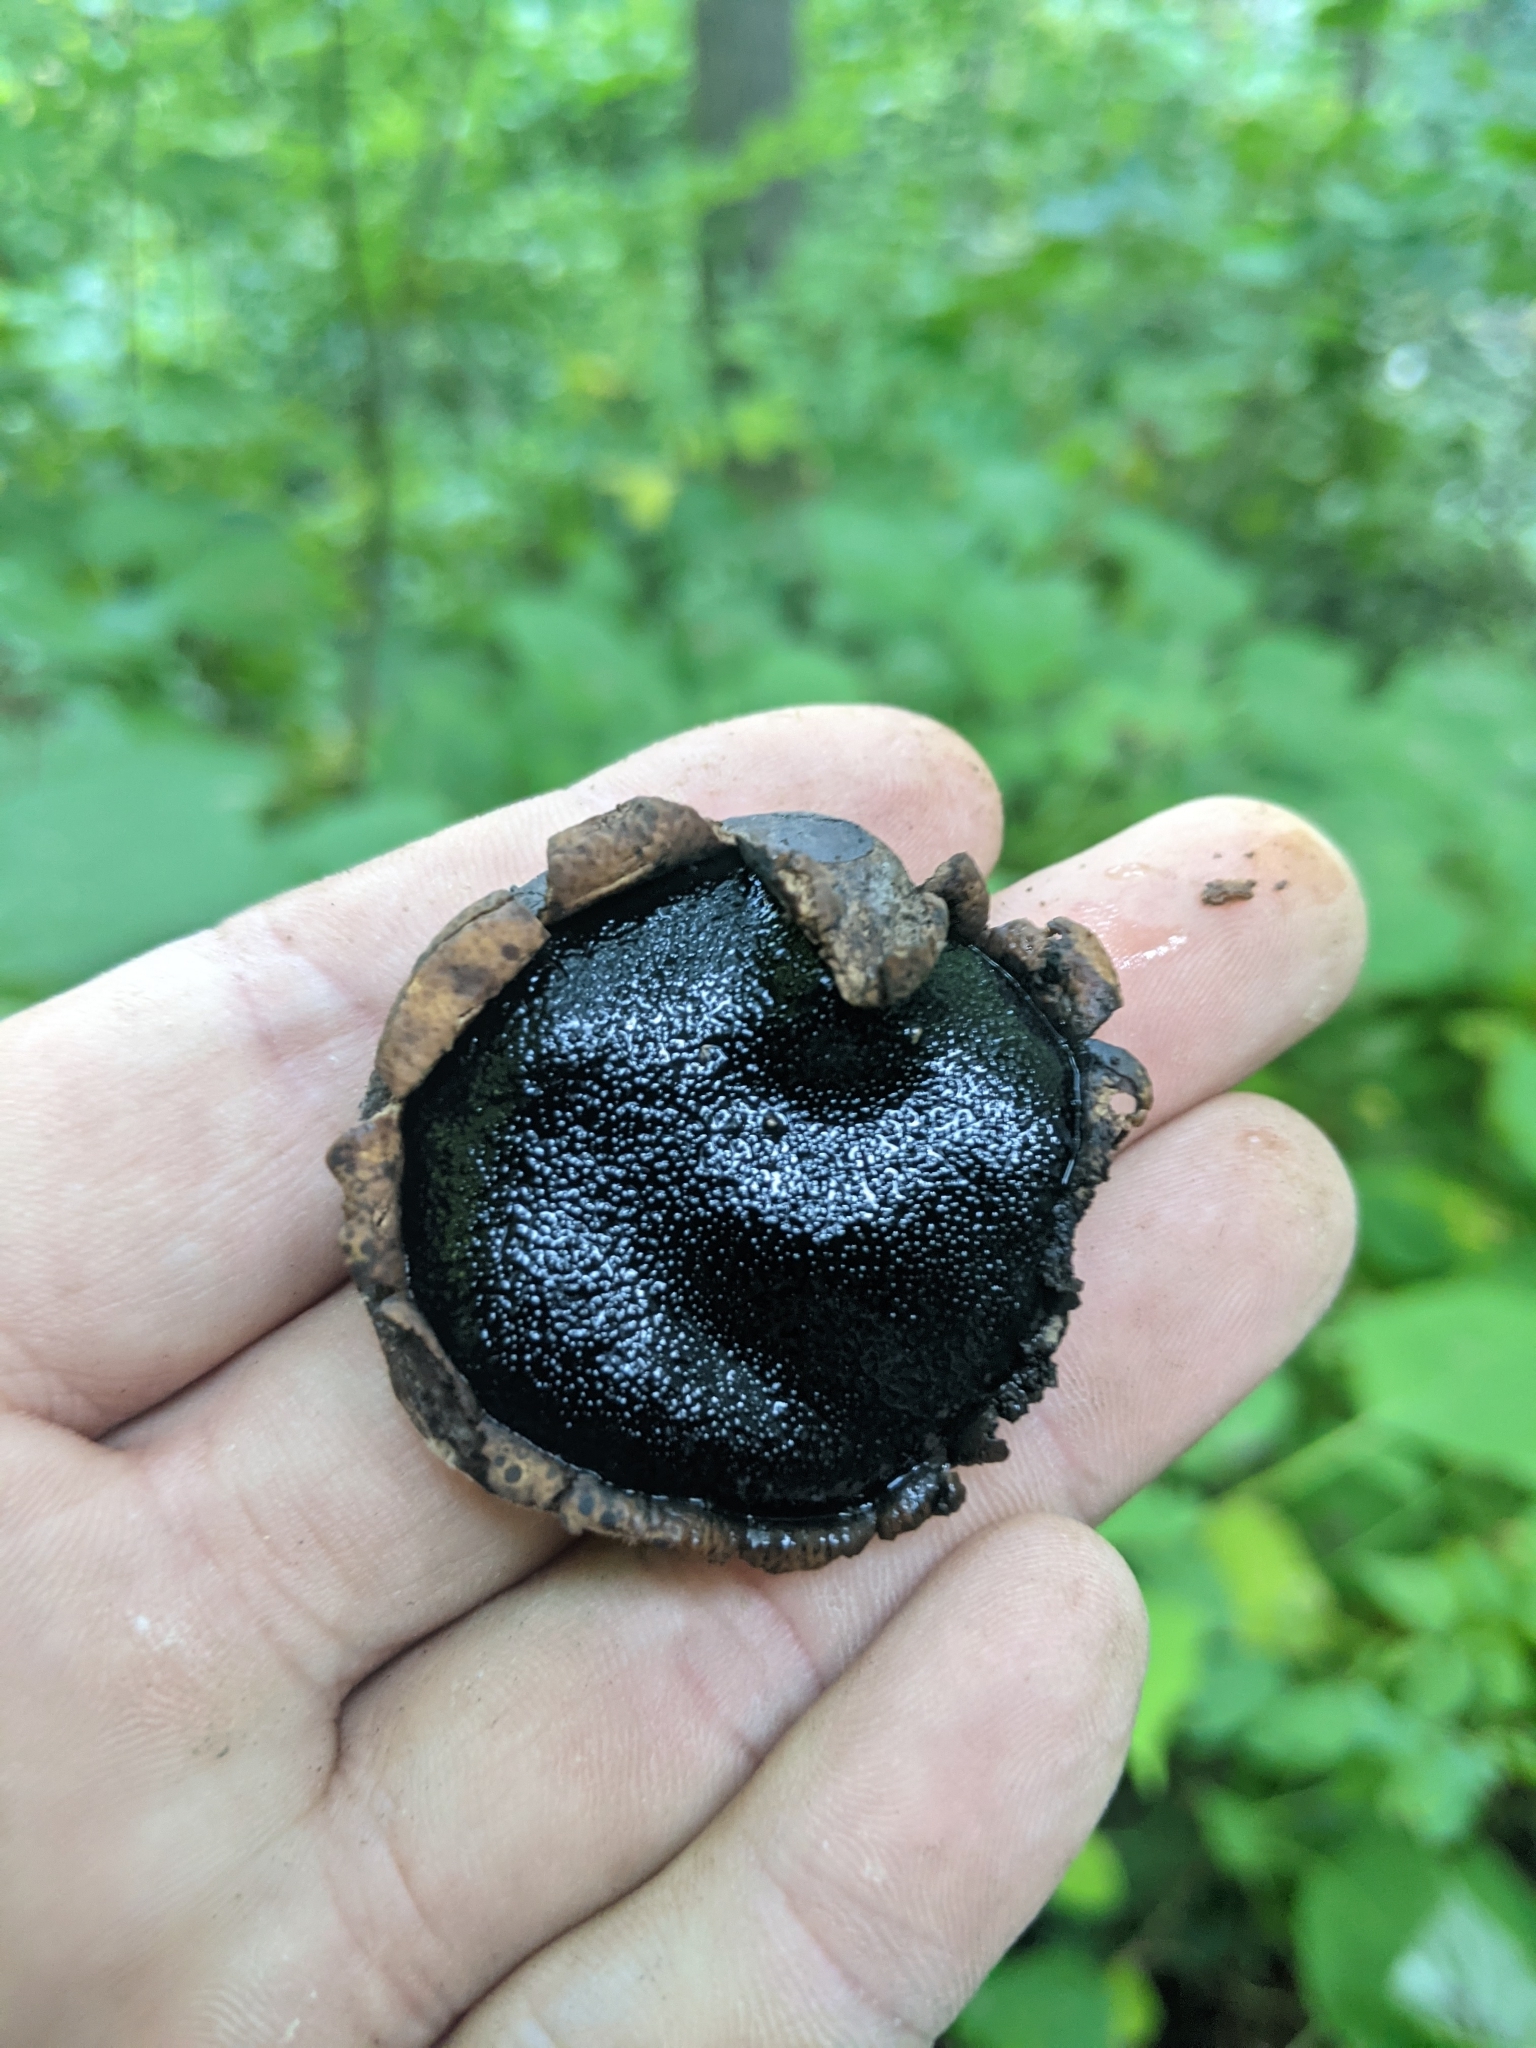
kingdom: Fungi
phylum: Ascomycota
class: Sordariomycetes
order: Boliniales
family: Boliniaceae
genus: Camarops
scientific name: Camarops petersii
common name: Dog's nose fungus
